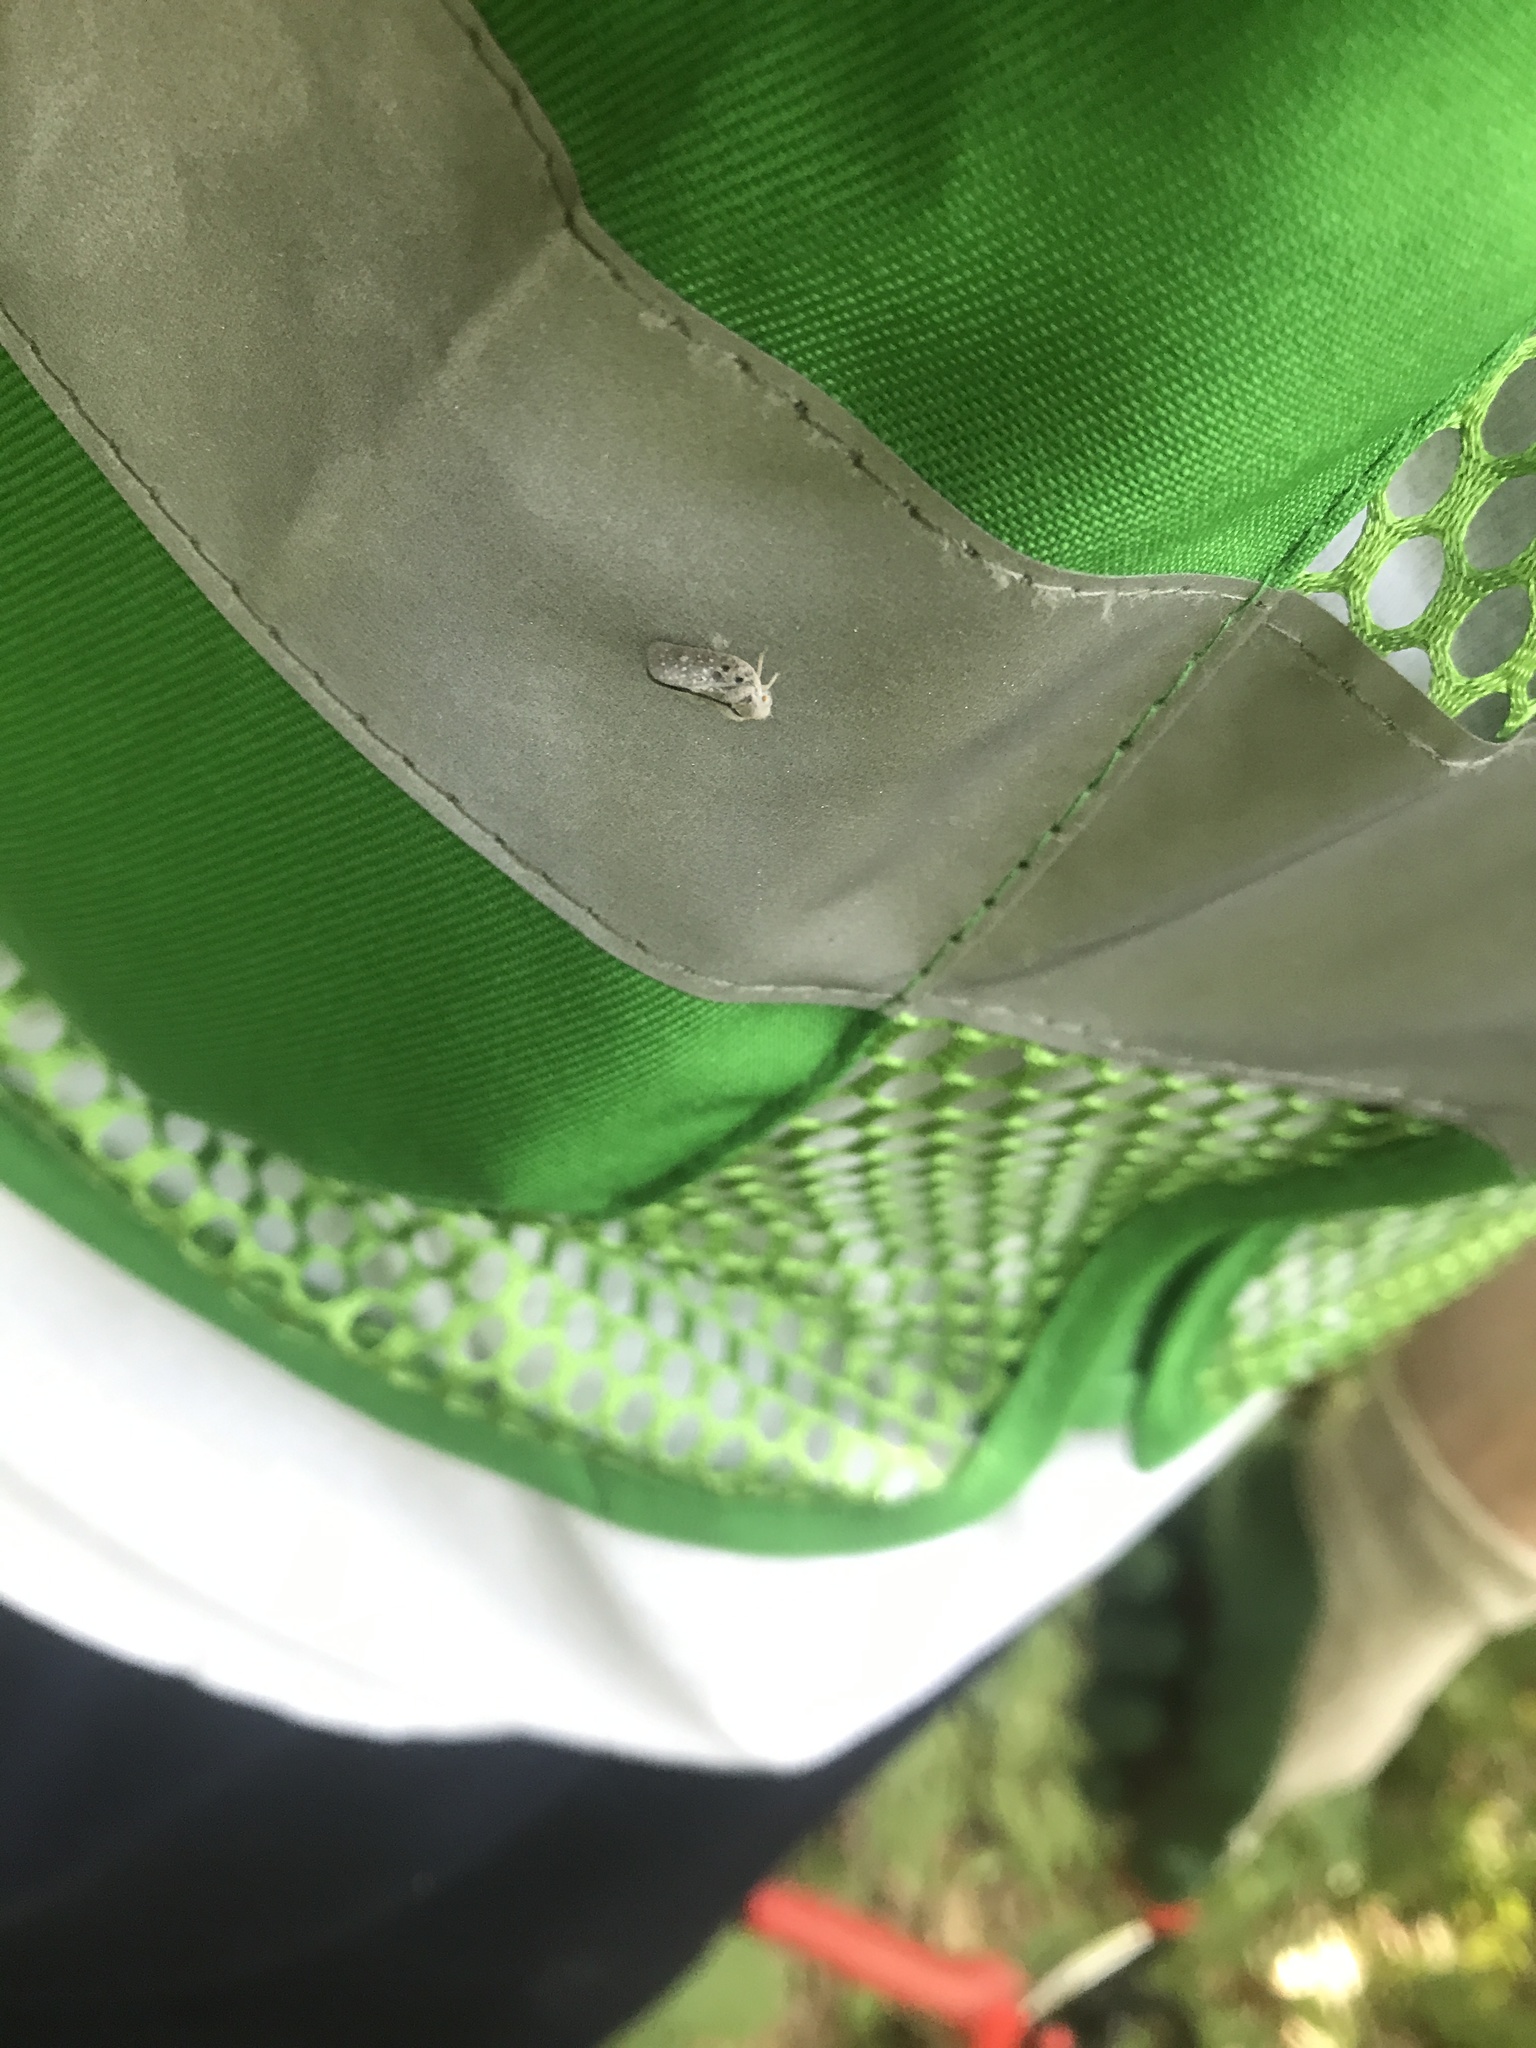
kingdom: Animalia
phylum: Arthropoda
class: Insecta
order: Hemiptera
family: Flatidae
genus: Metcalfa
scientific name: Metcalfa pruinosa
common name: Citrus flatid planthopper
